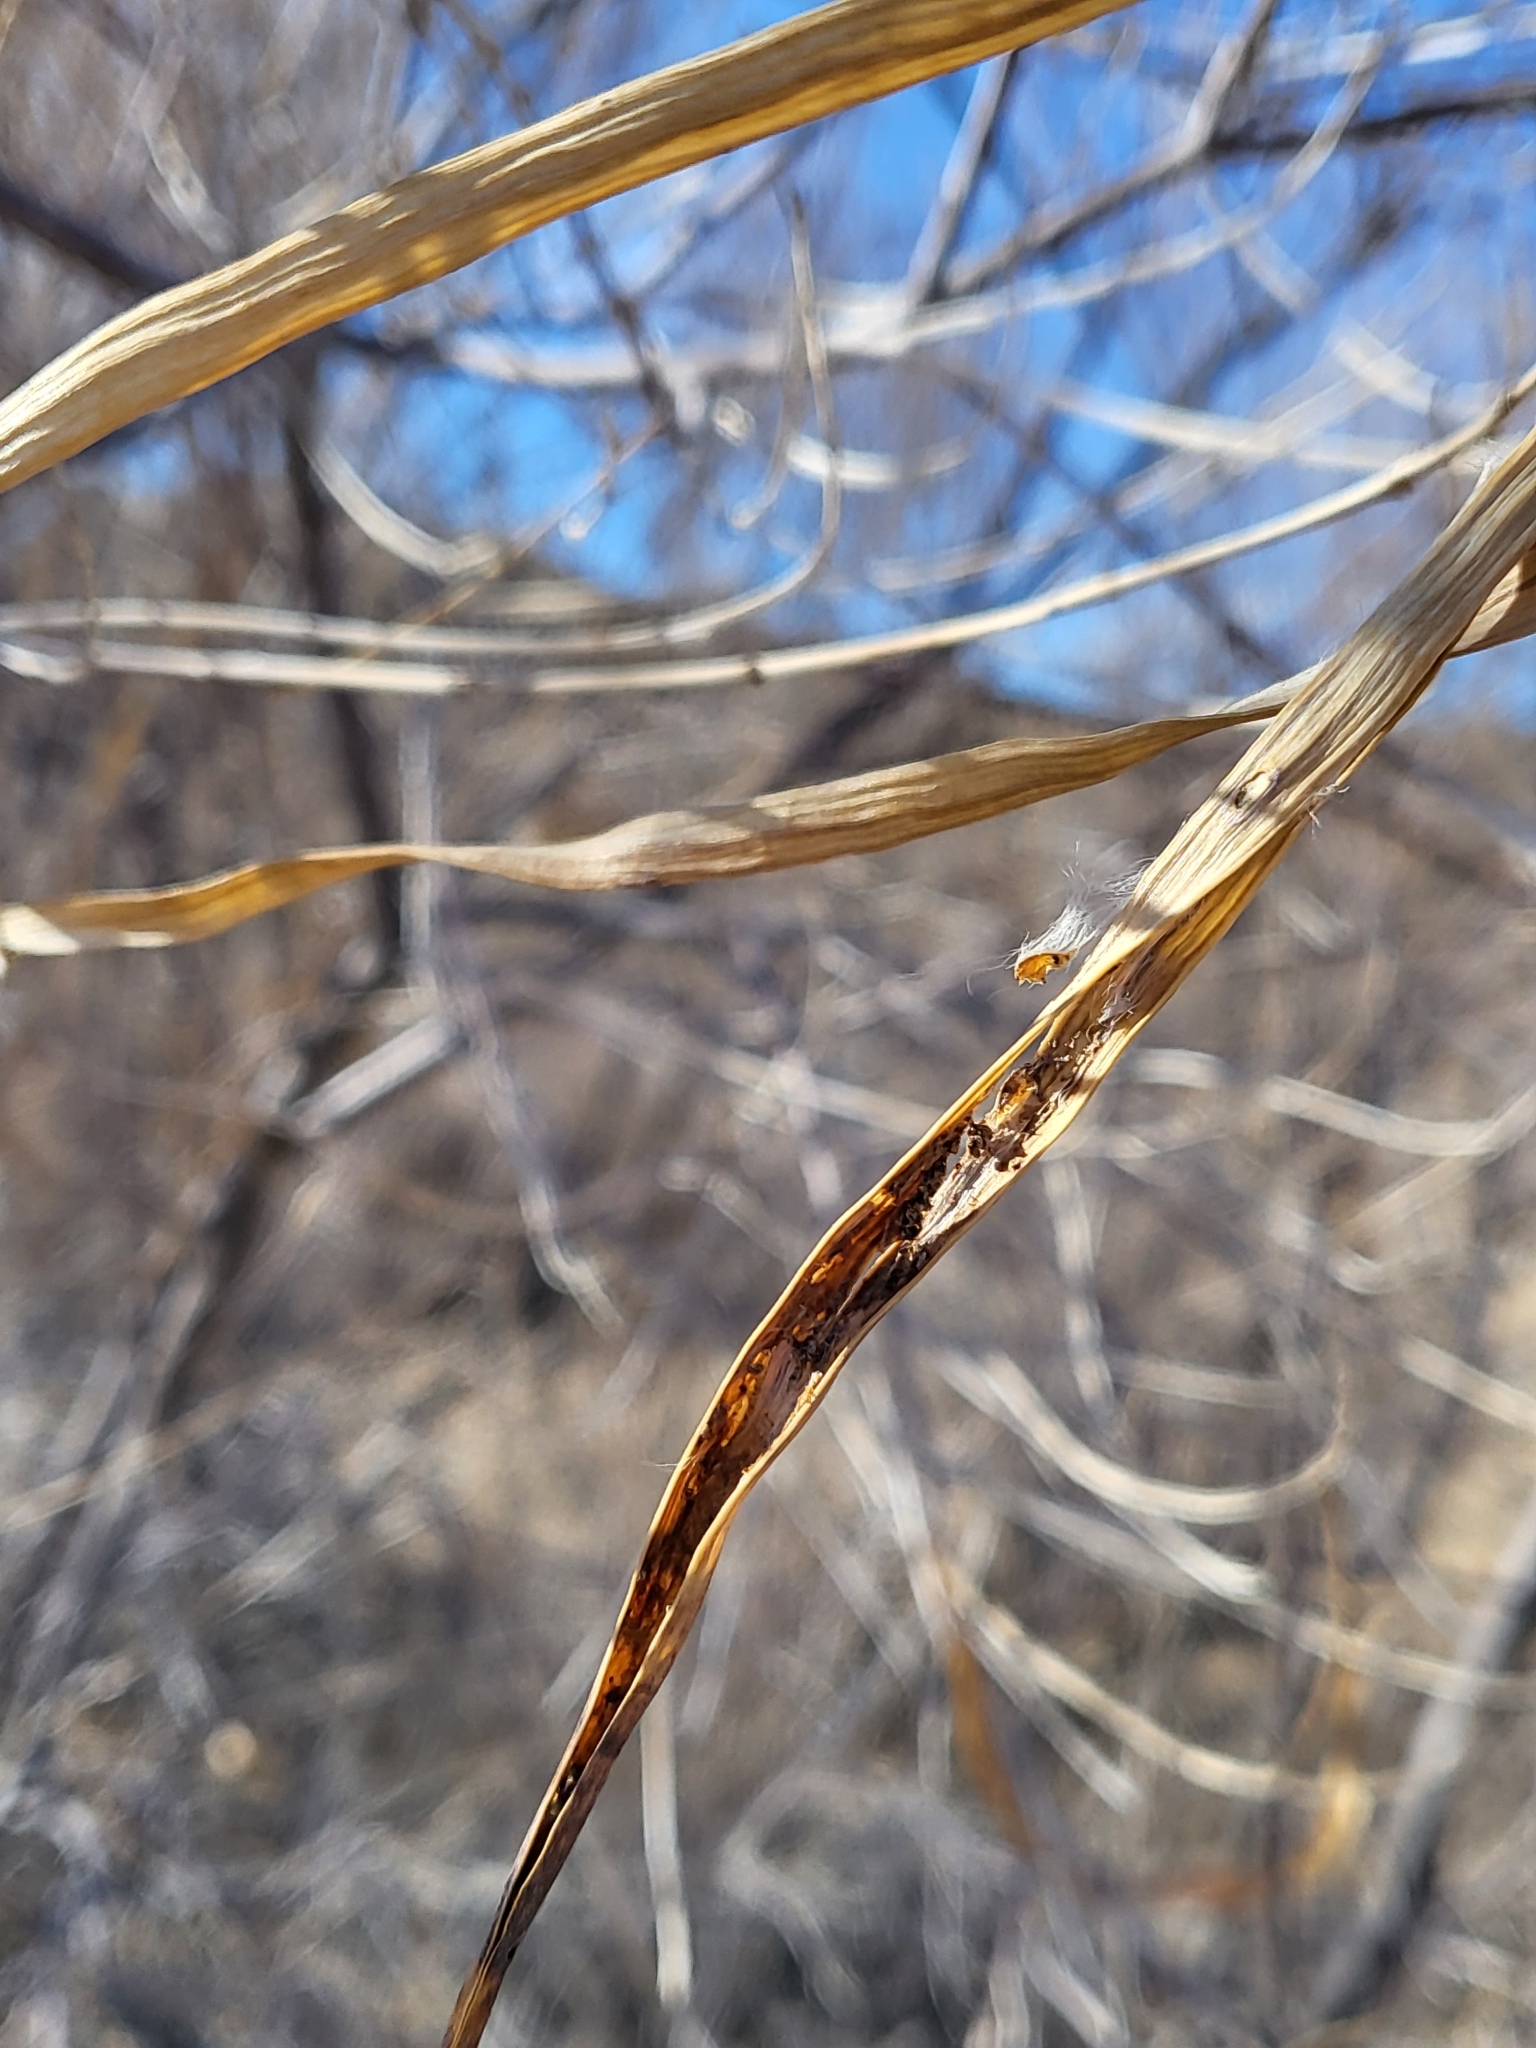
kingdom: Plantae
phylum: Tracheophyta
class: Magnoliopsida
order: Lamiales
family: Bignoniaceae
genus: Chilopsis
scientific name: Chilopsis linearis
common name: Desert-willow
